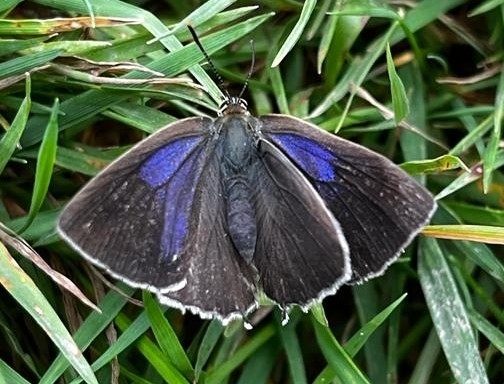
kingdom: Animalia
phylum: Arthropoda
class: Insecta
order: Lepidoptera
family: Lycaenidae
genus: Quercusia
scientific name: Quercusia quercus
